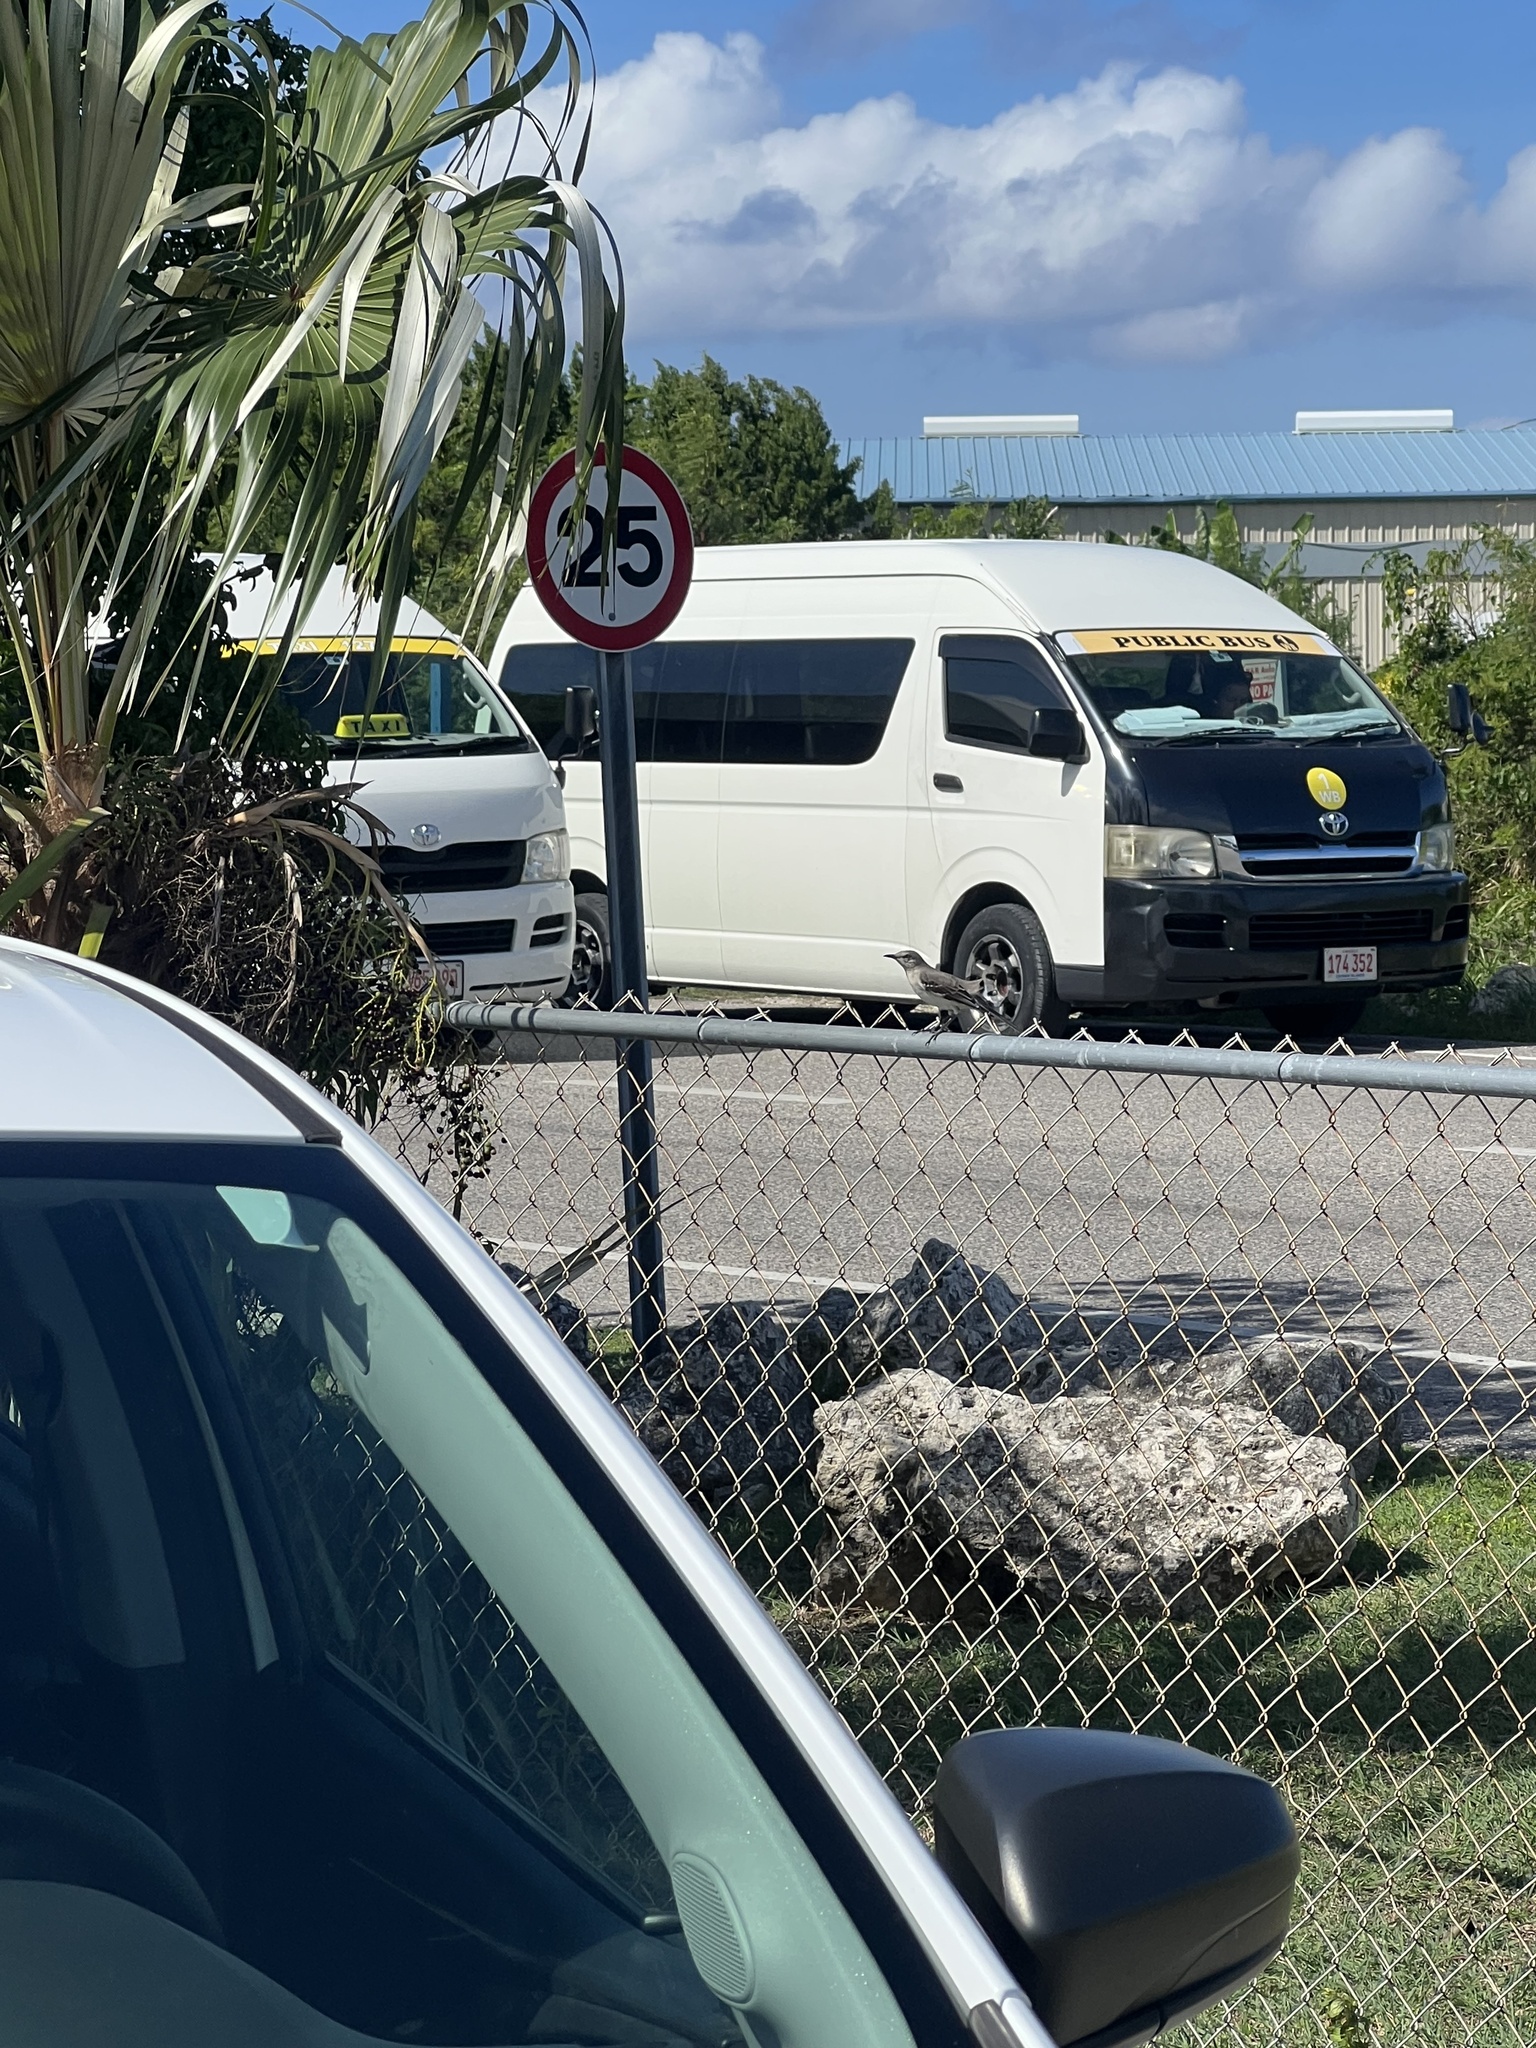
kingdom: Animalia
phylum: Chordata
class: Aves
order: Passeriformes
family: Mimidae
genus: Mimus
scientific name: Mimus polyglottos
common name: Northern mockingbird
